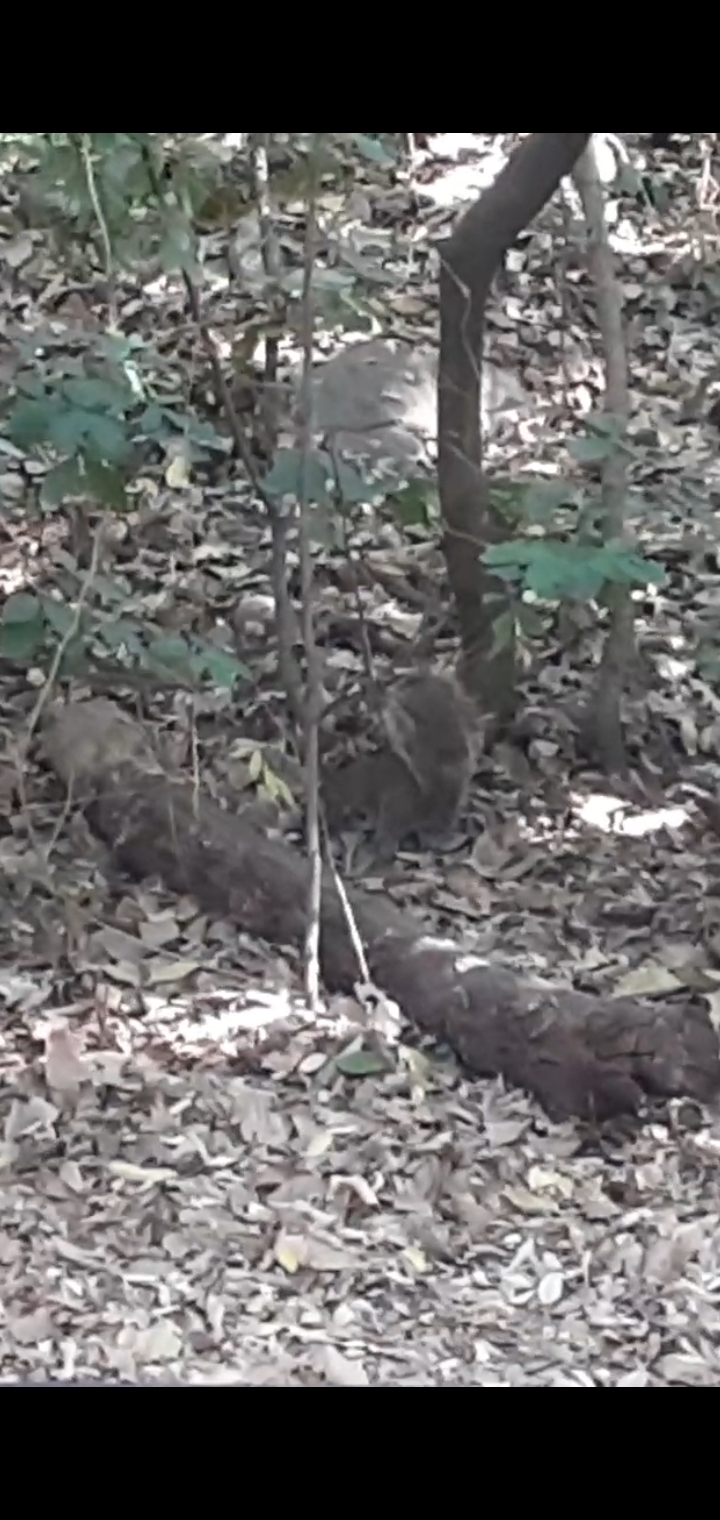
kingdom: Animalia
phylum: Chordata
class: Mammalia
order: Rodentia
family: Sciuridae
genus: Sciurus
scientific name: Sciurus alleni
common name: Allen's squirrel
